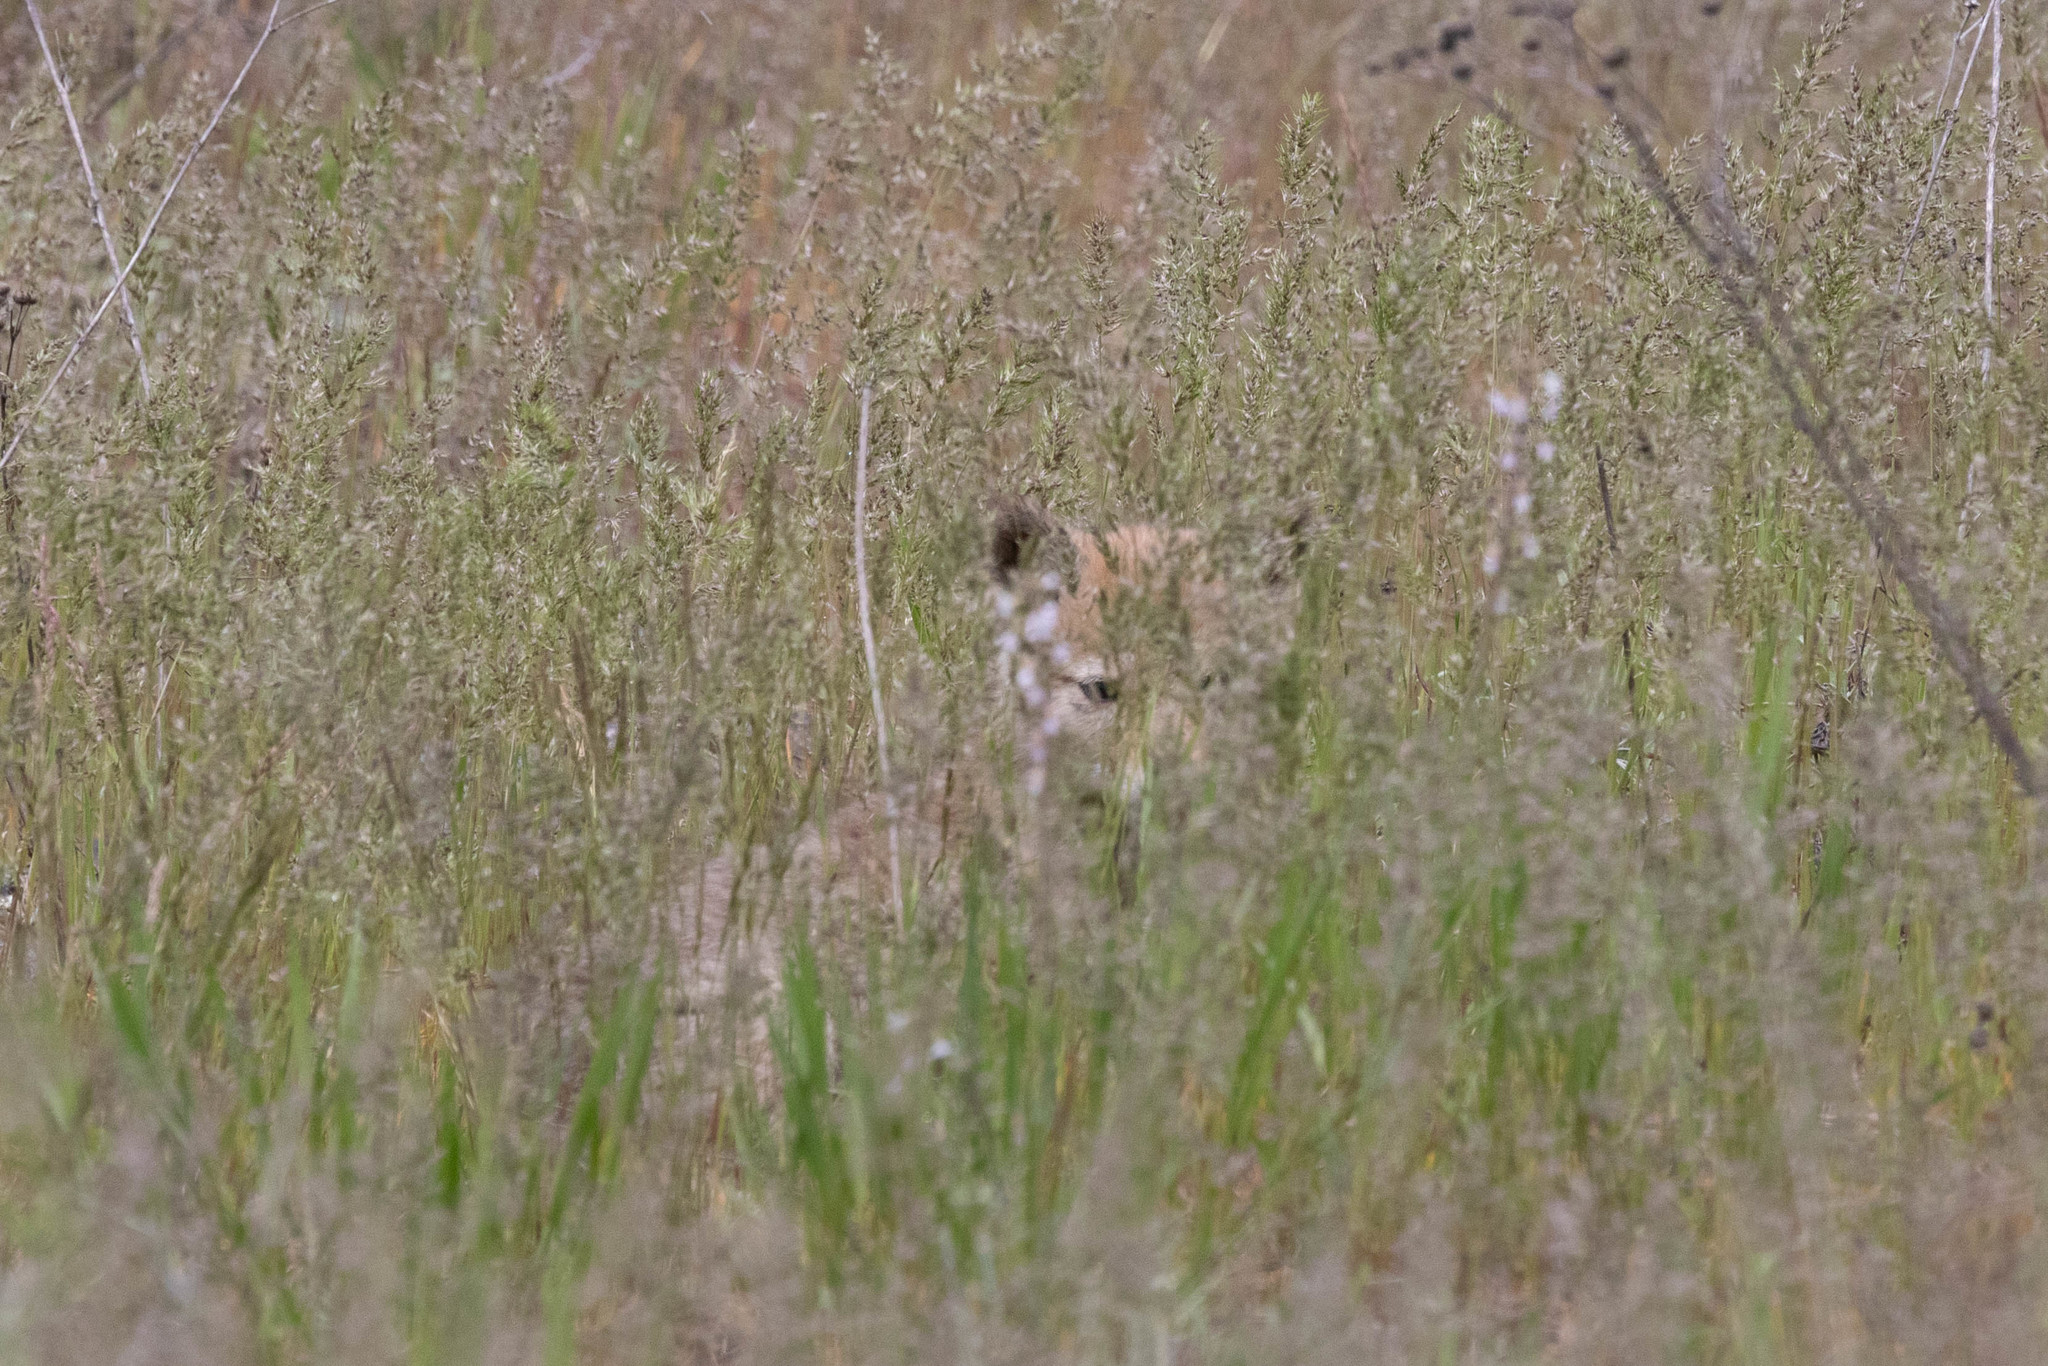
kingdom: Animalia
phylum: Chordata
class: Mammalia
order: Carnivora
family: Canidae
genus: Canis
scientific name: Canis latrans
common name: Coyote
